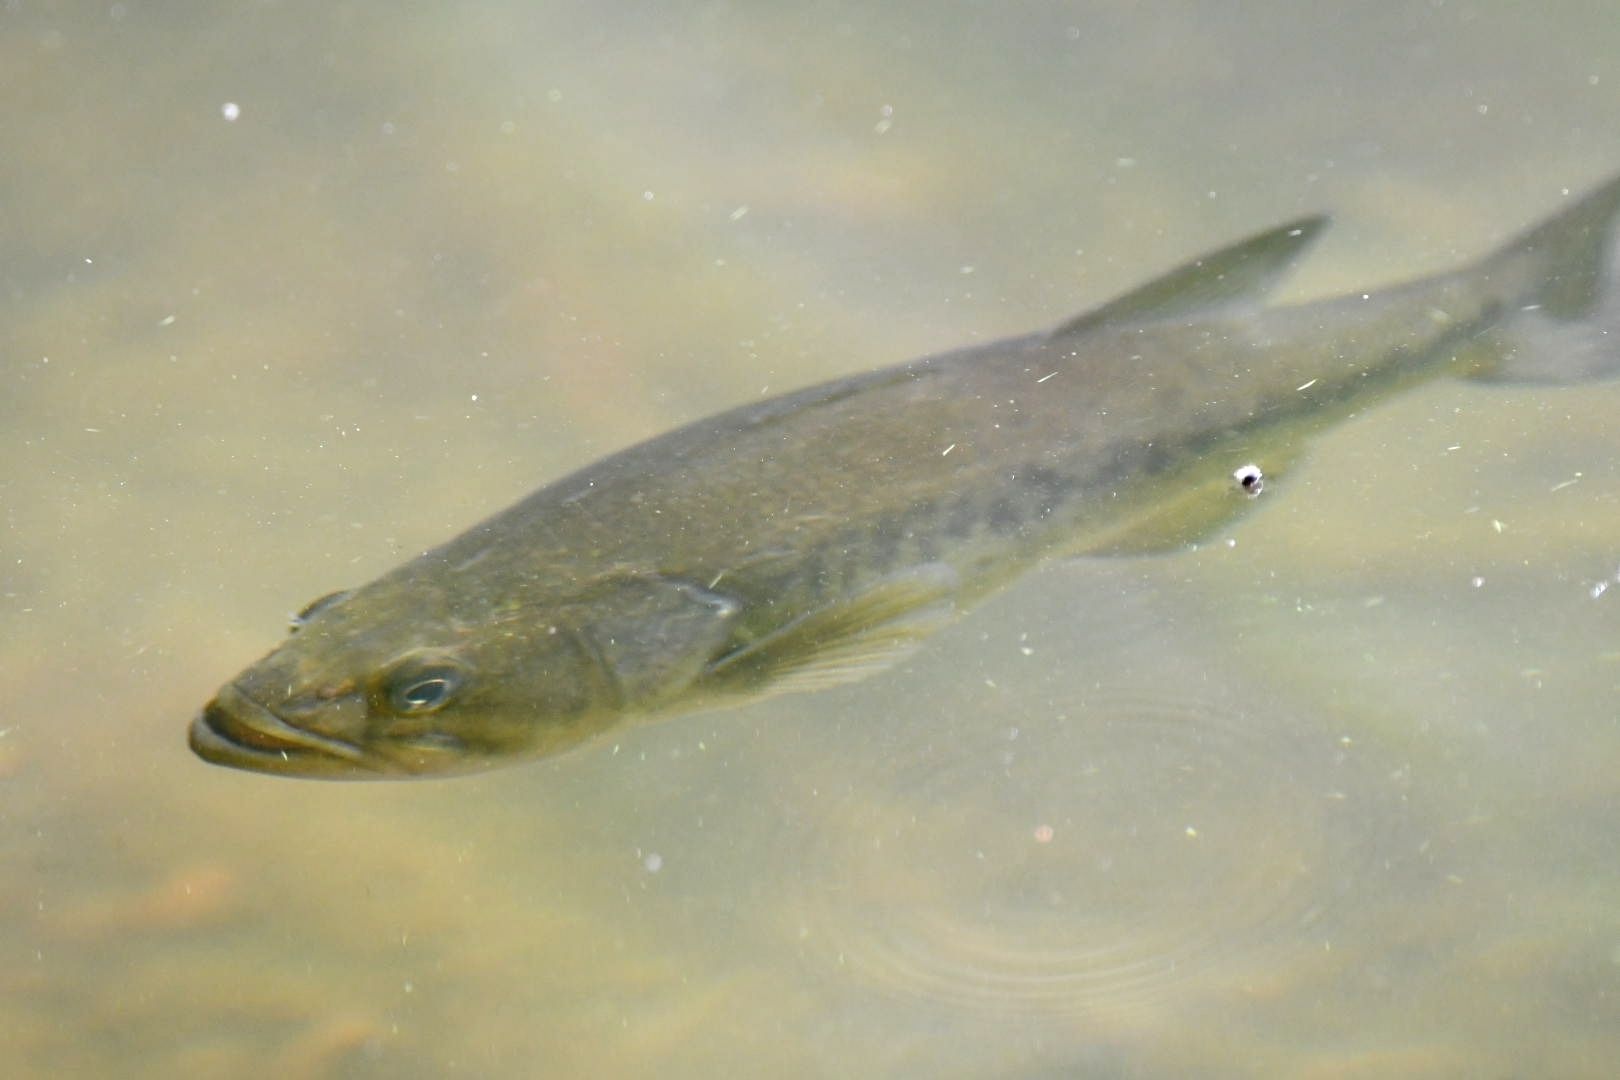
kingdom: Animalia
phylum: Chordata
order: Perciformes
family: Centrarchidae
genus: Micropterus
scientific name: Micropterus
